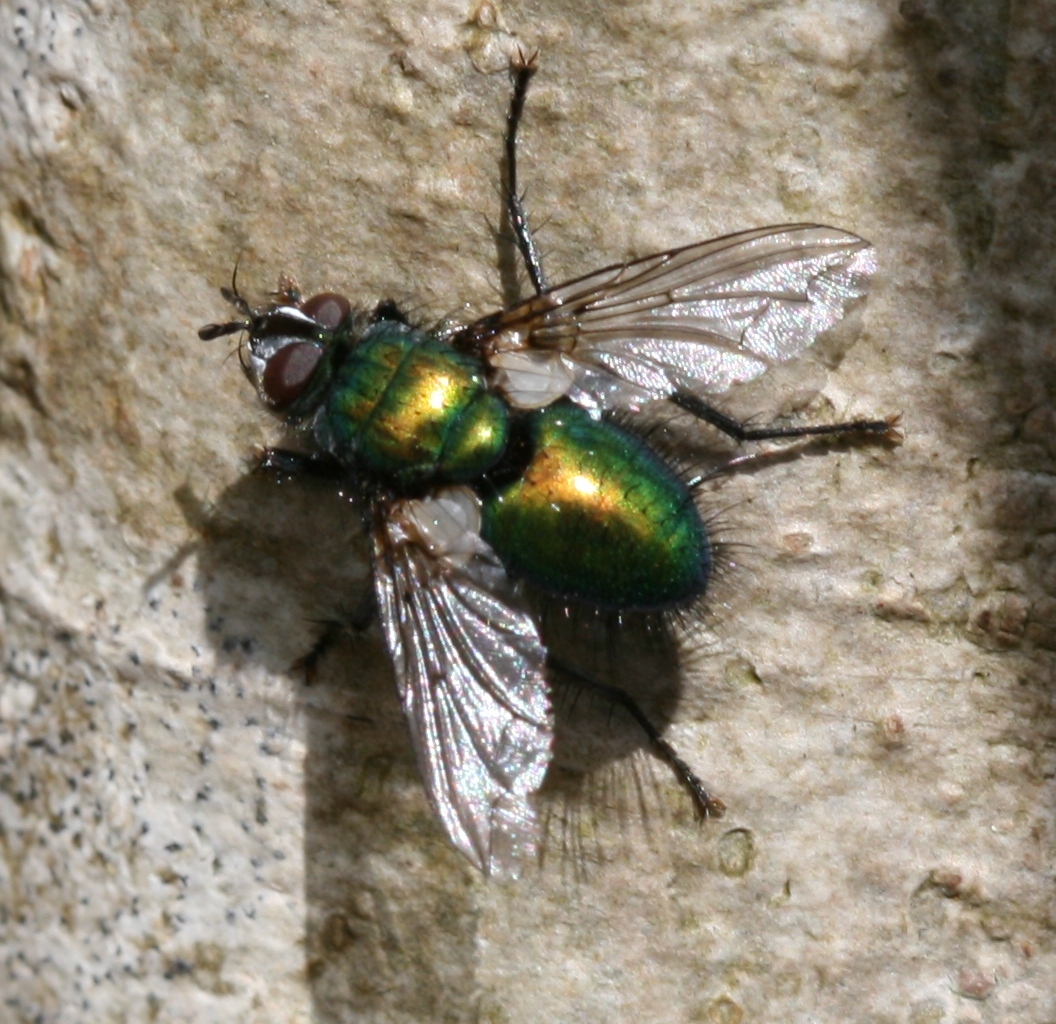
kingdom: Animalia
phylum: Arthropoda
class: Insecta
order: Diptera
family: Tachinidae
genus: Gymnocheta
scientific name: Gymnocheta viridis
